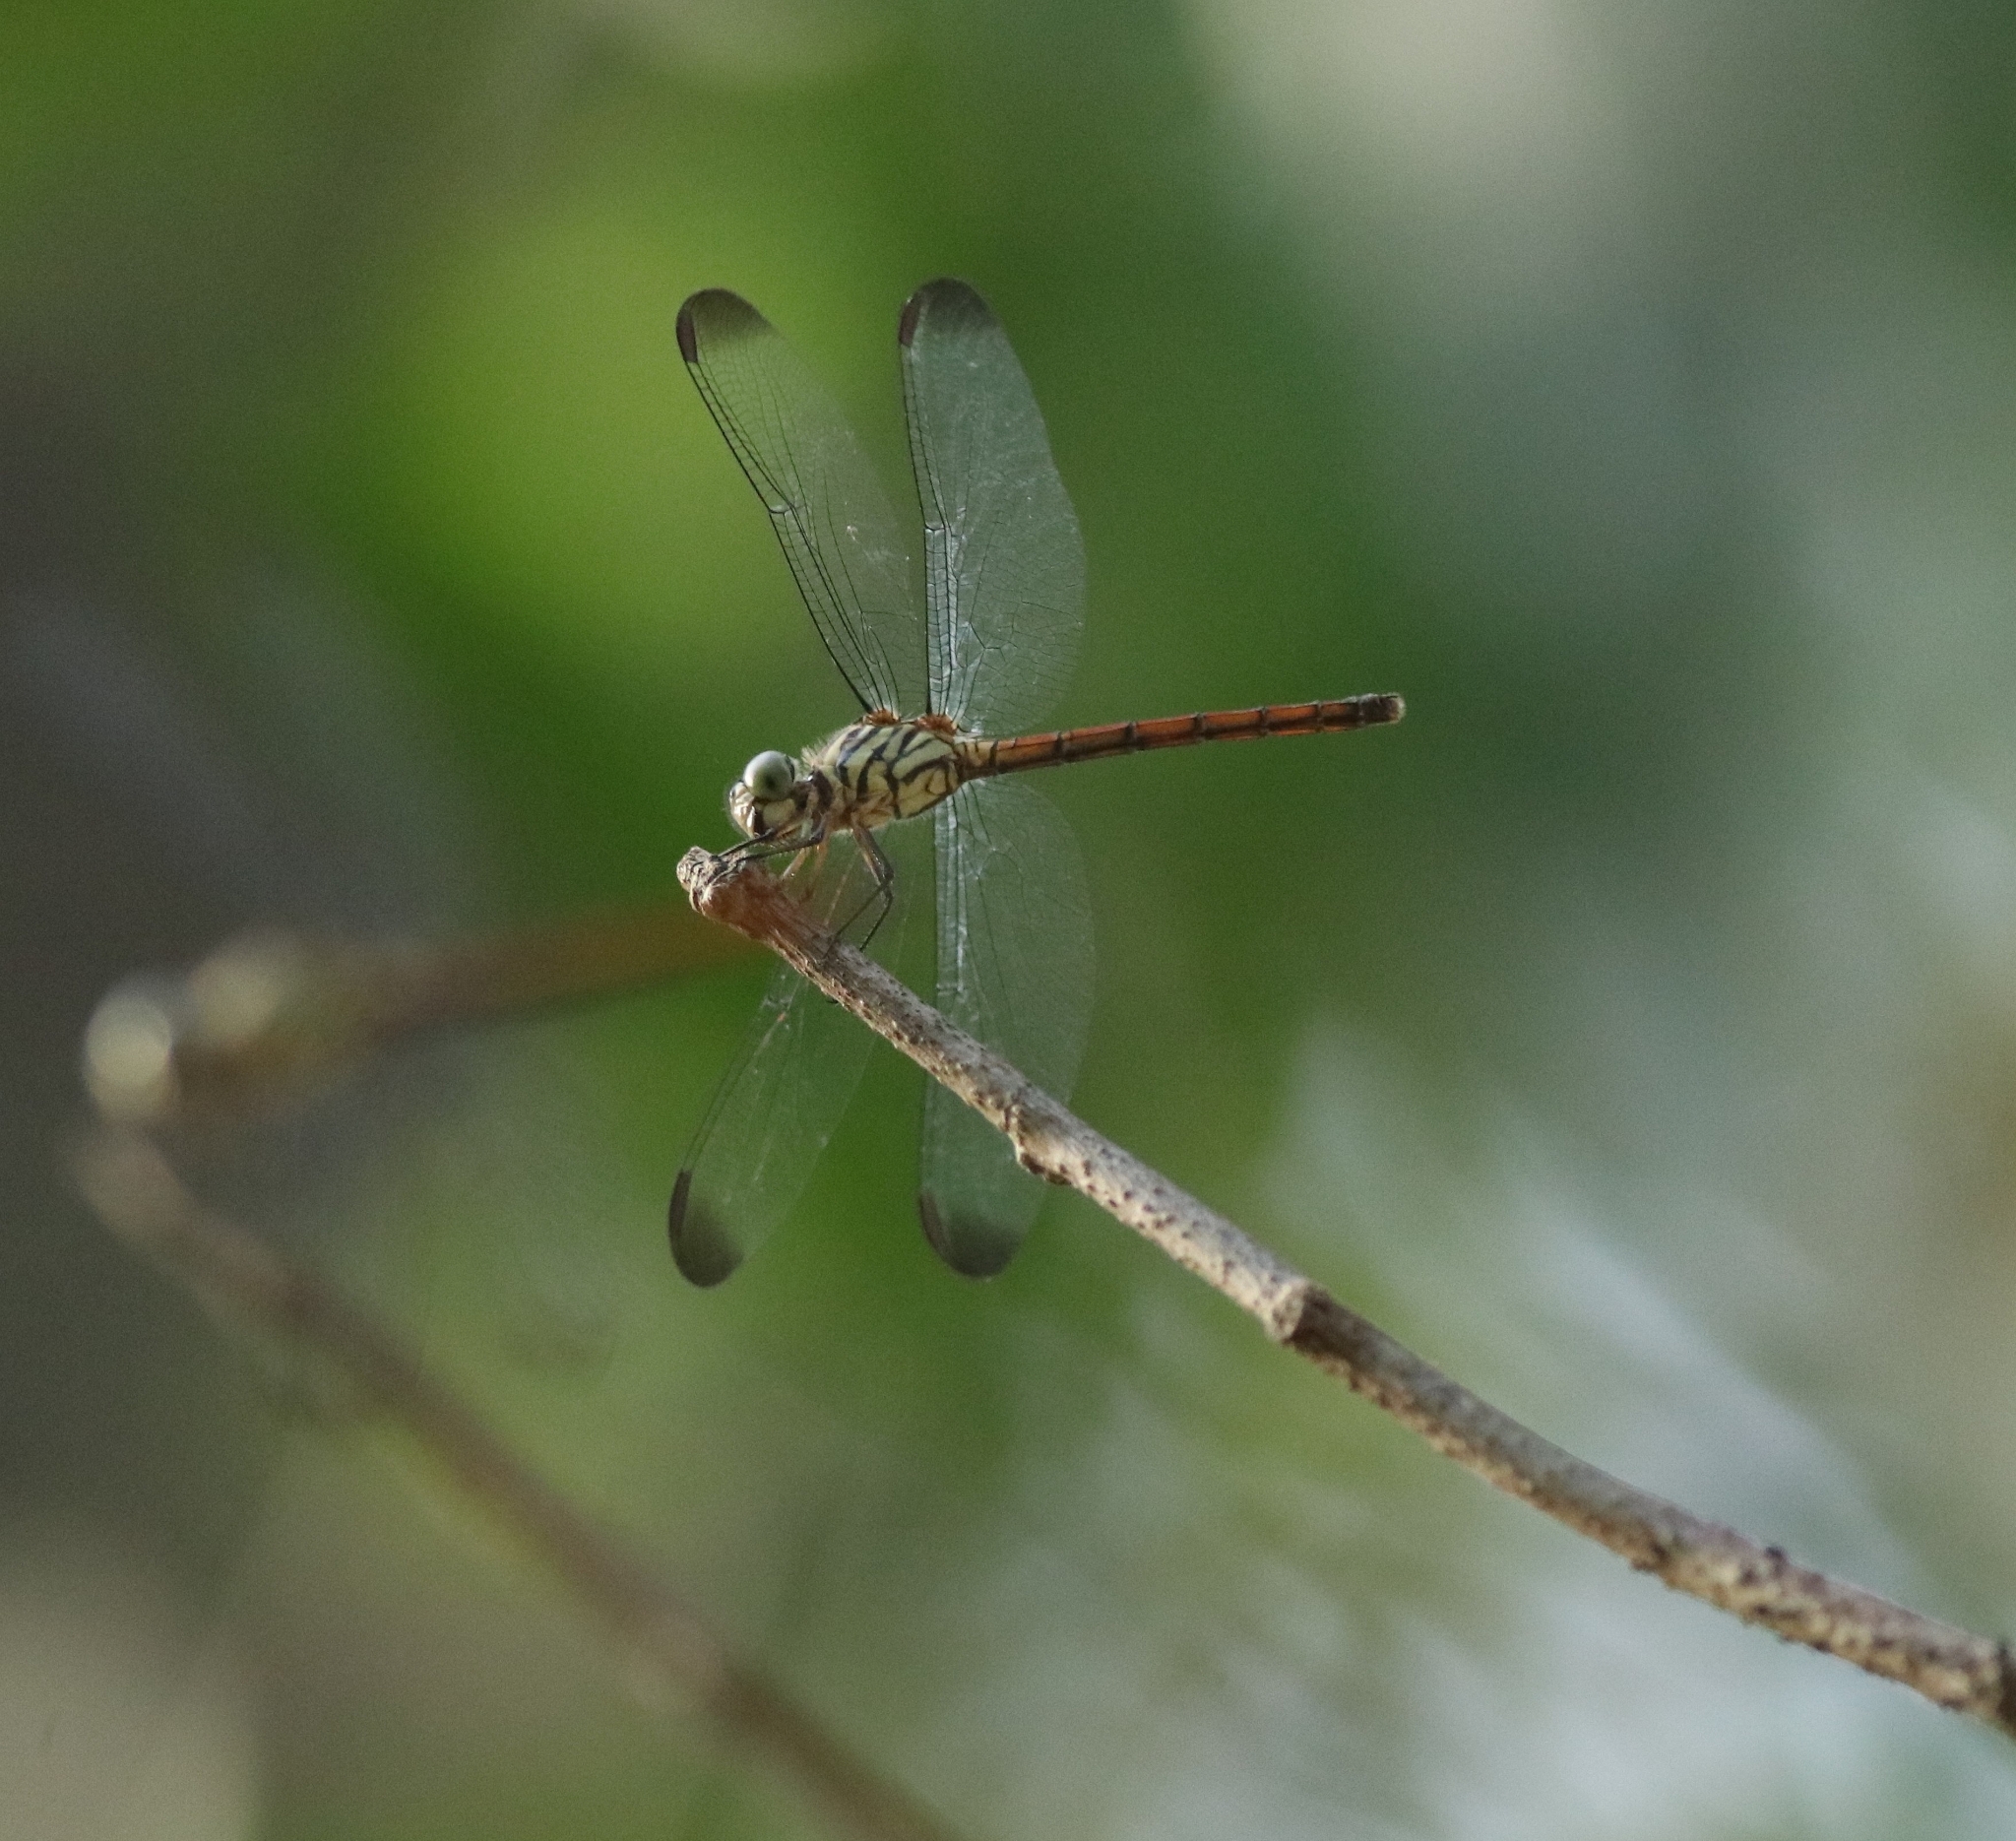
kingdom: Animalia
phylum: Arthropoda
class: Insecta
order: Odonata
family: Libellulidae
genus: Lathrecista
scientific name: Lathrecista asiatica
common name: Scarlet grenadier
